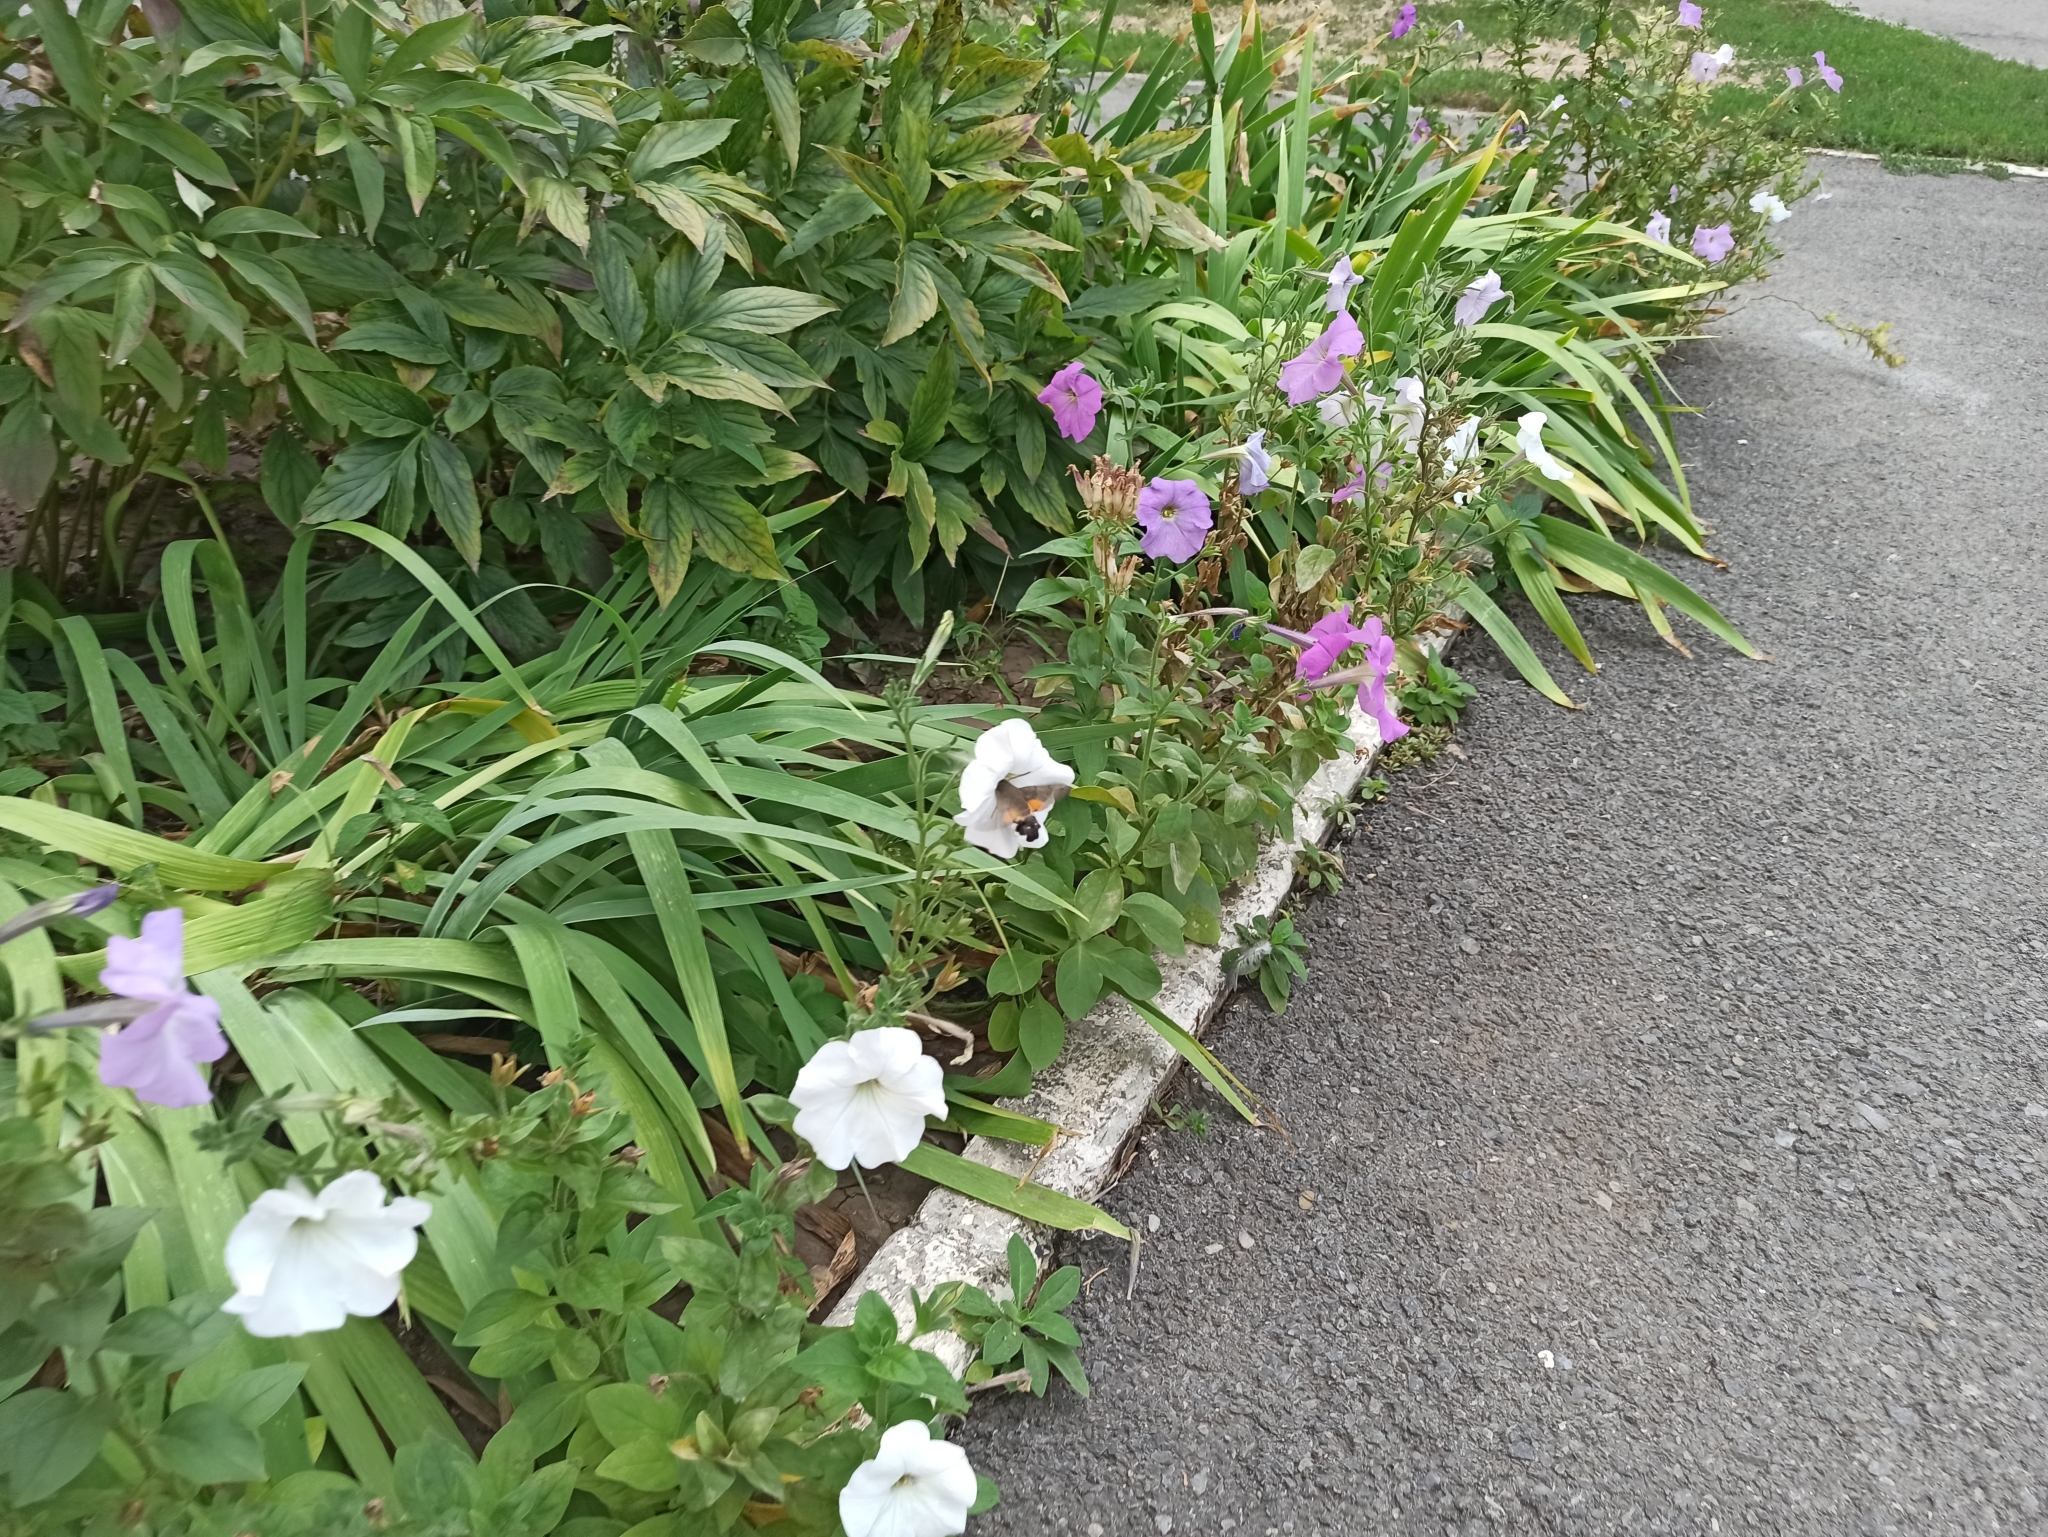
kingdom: Animalia
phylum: Arthropoda
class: Insecta
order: Lepidoptera
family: Sphingidae
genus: Macroglossum
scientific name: Macroglossum stellatarum
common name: Humming-bird hawk-moth
